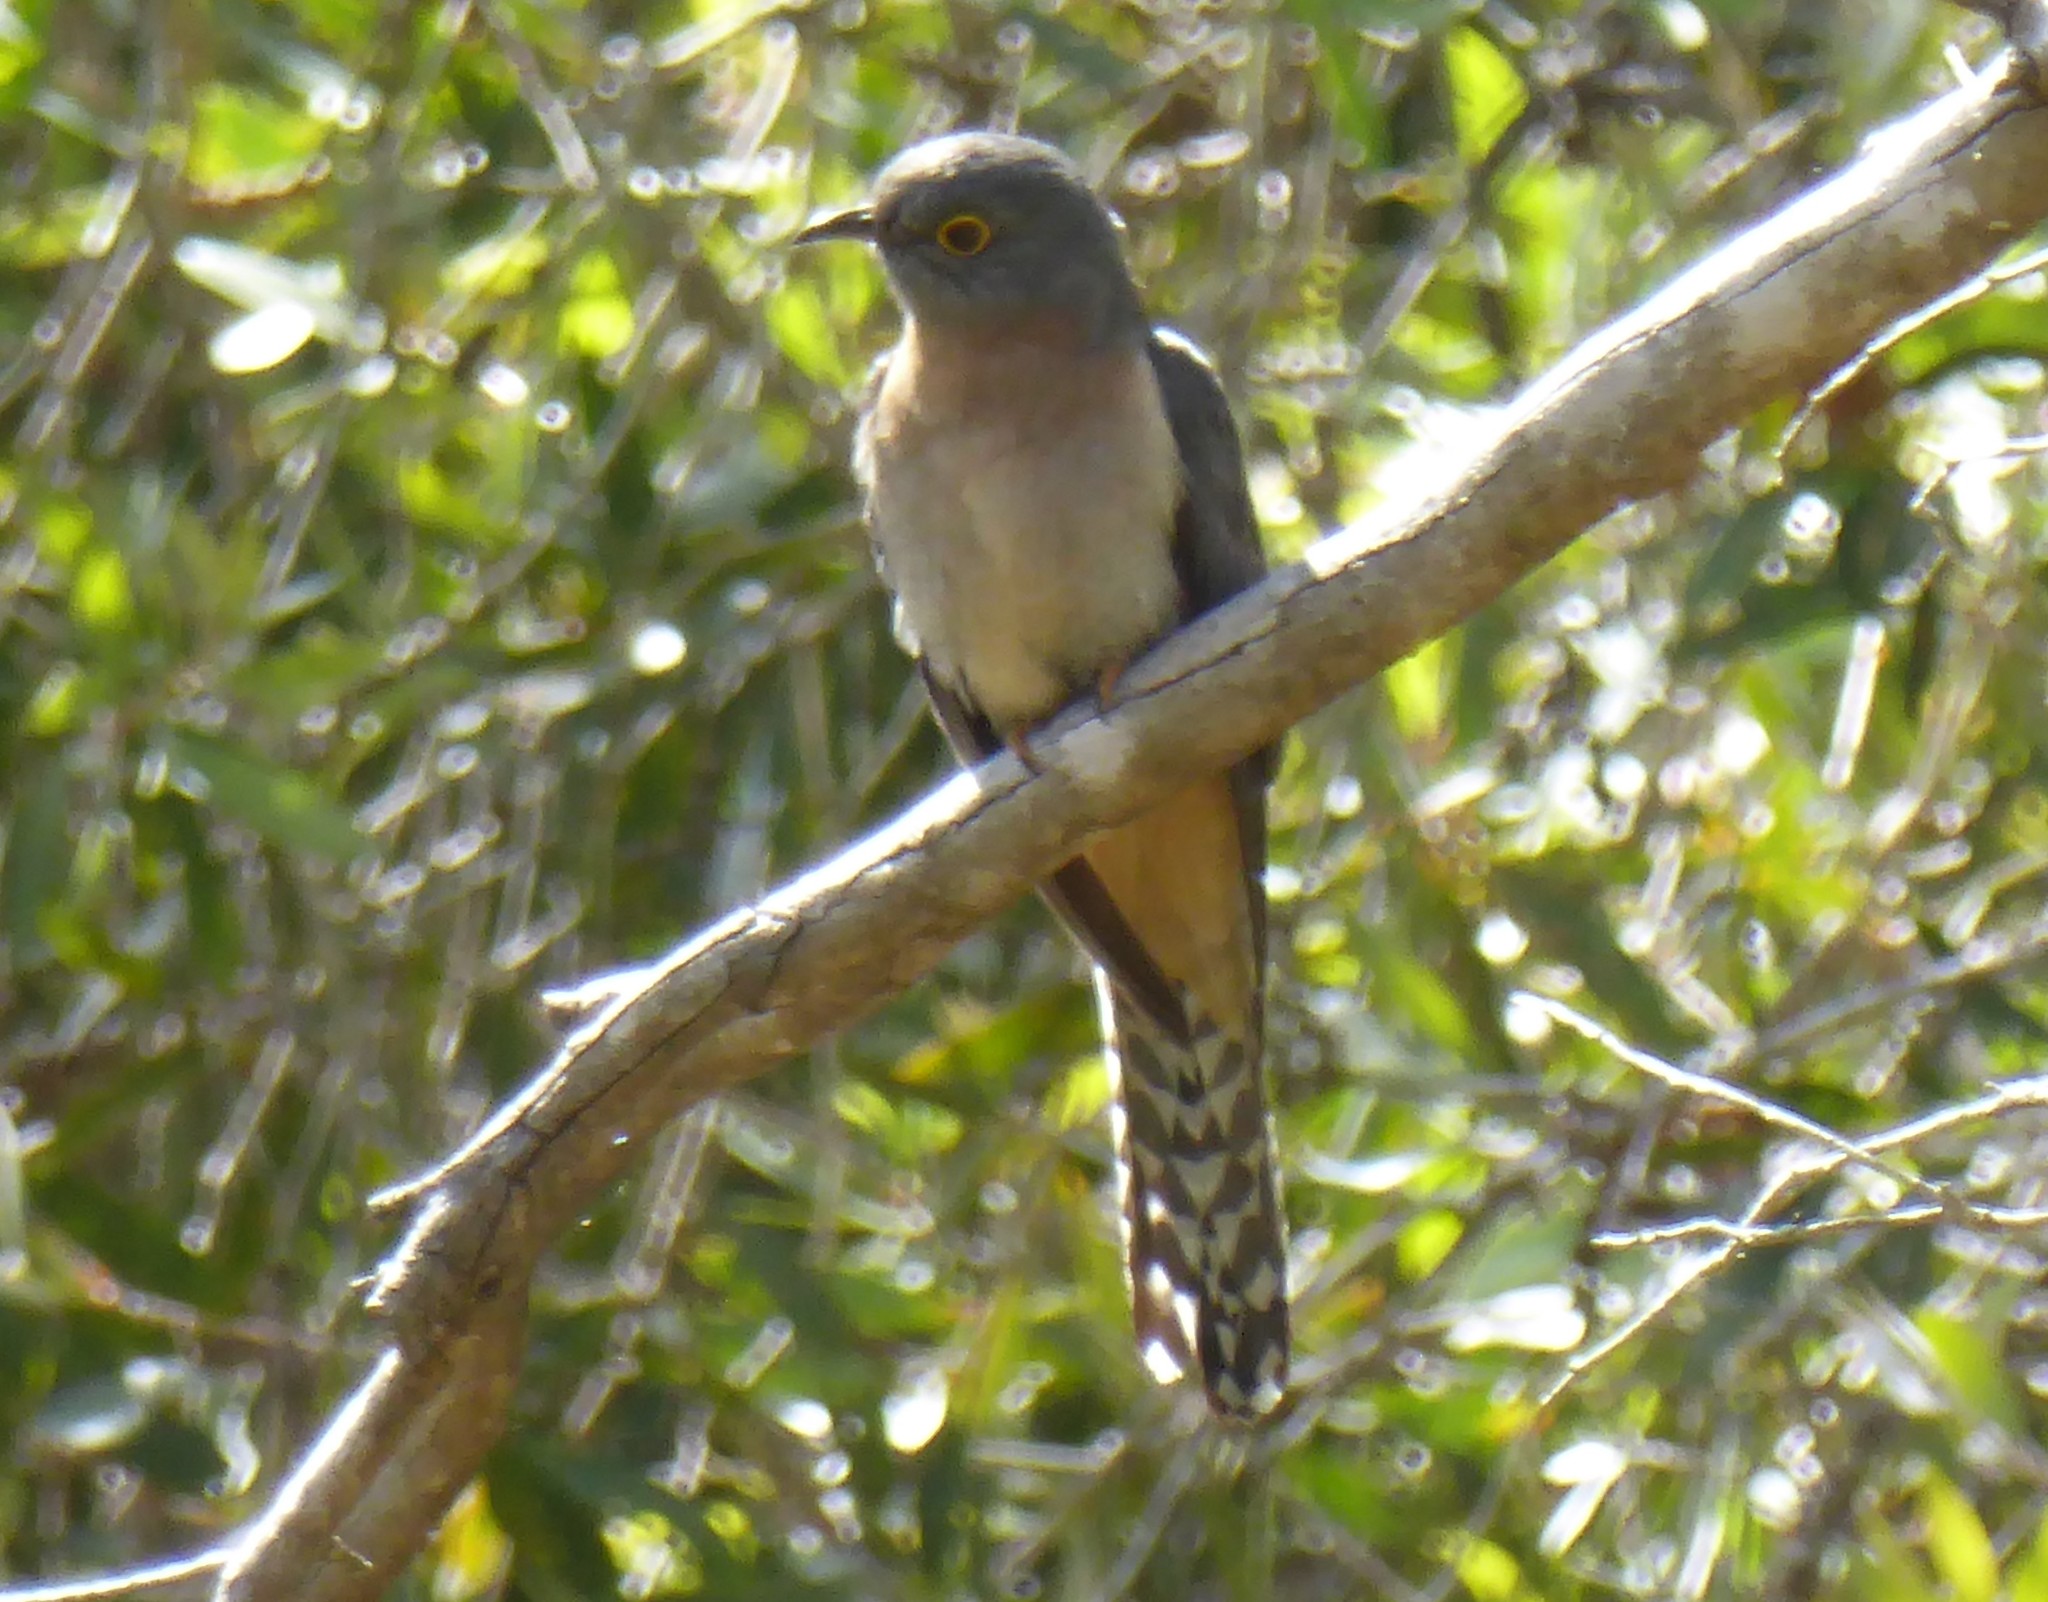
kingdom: Animalia
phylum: Chordata
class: Aves
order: Cuculiformes
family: Cuculidae
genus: Cacomantis
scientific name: Cacomantis flabelliformis
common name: Fan-tailed cuckoo
